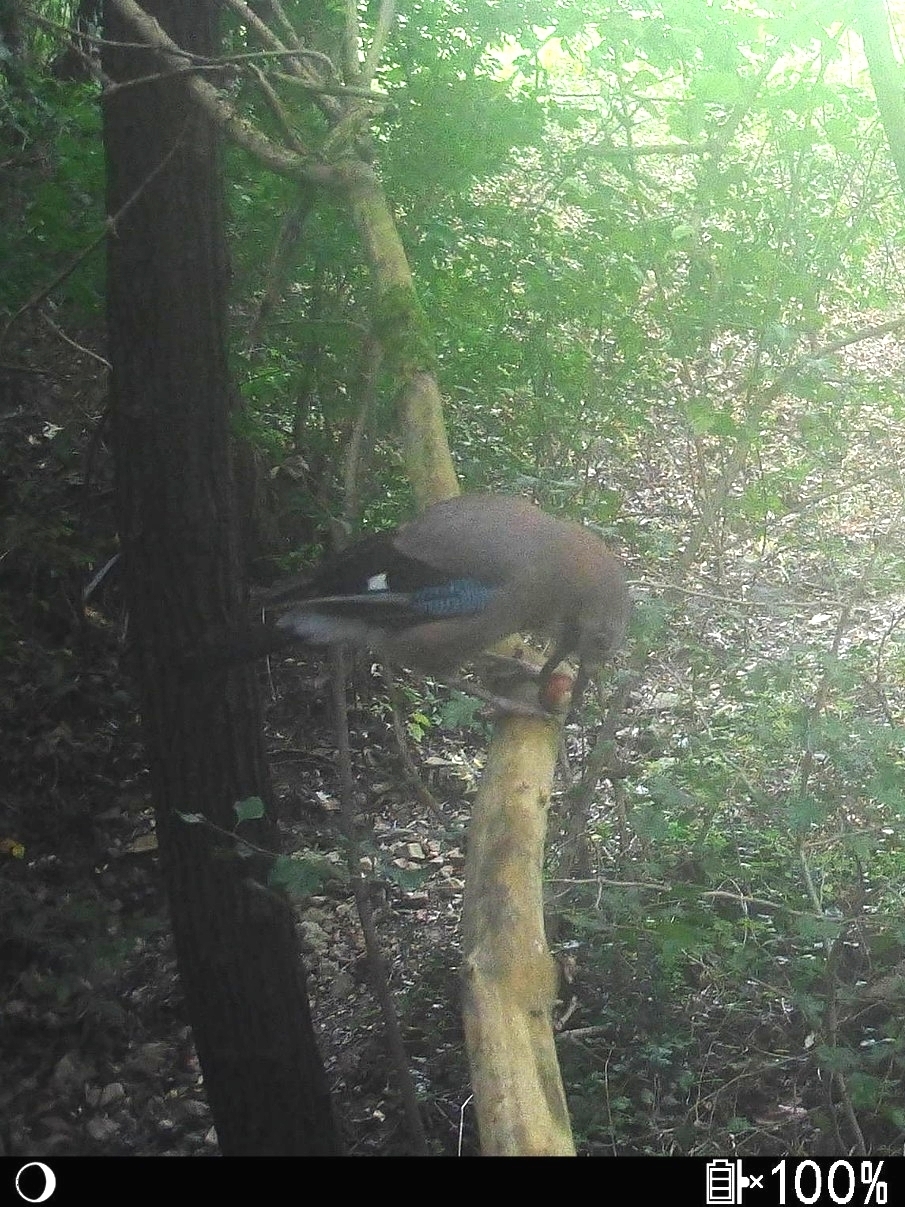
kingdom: Animalia
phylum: Chordata
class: Aves
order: Passeriformes
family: Corvidae
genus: Garrulus
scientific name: Garrulus glandarius
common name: Eurasian jay
